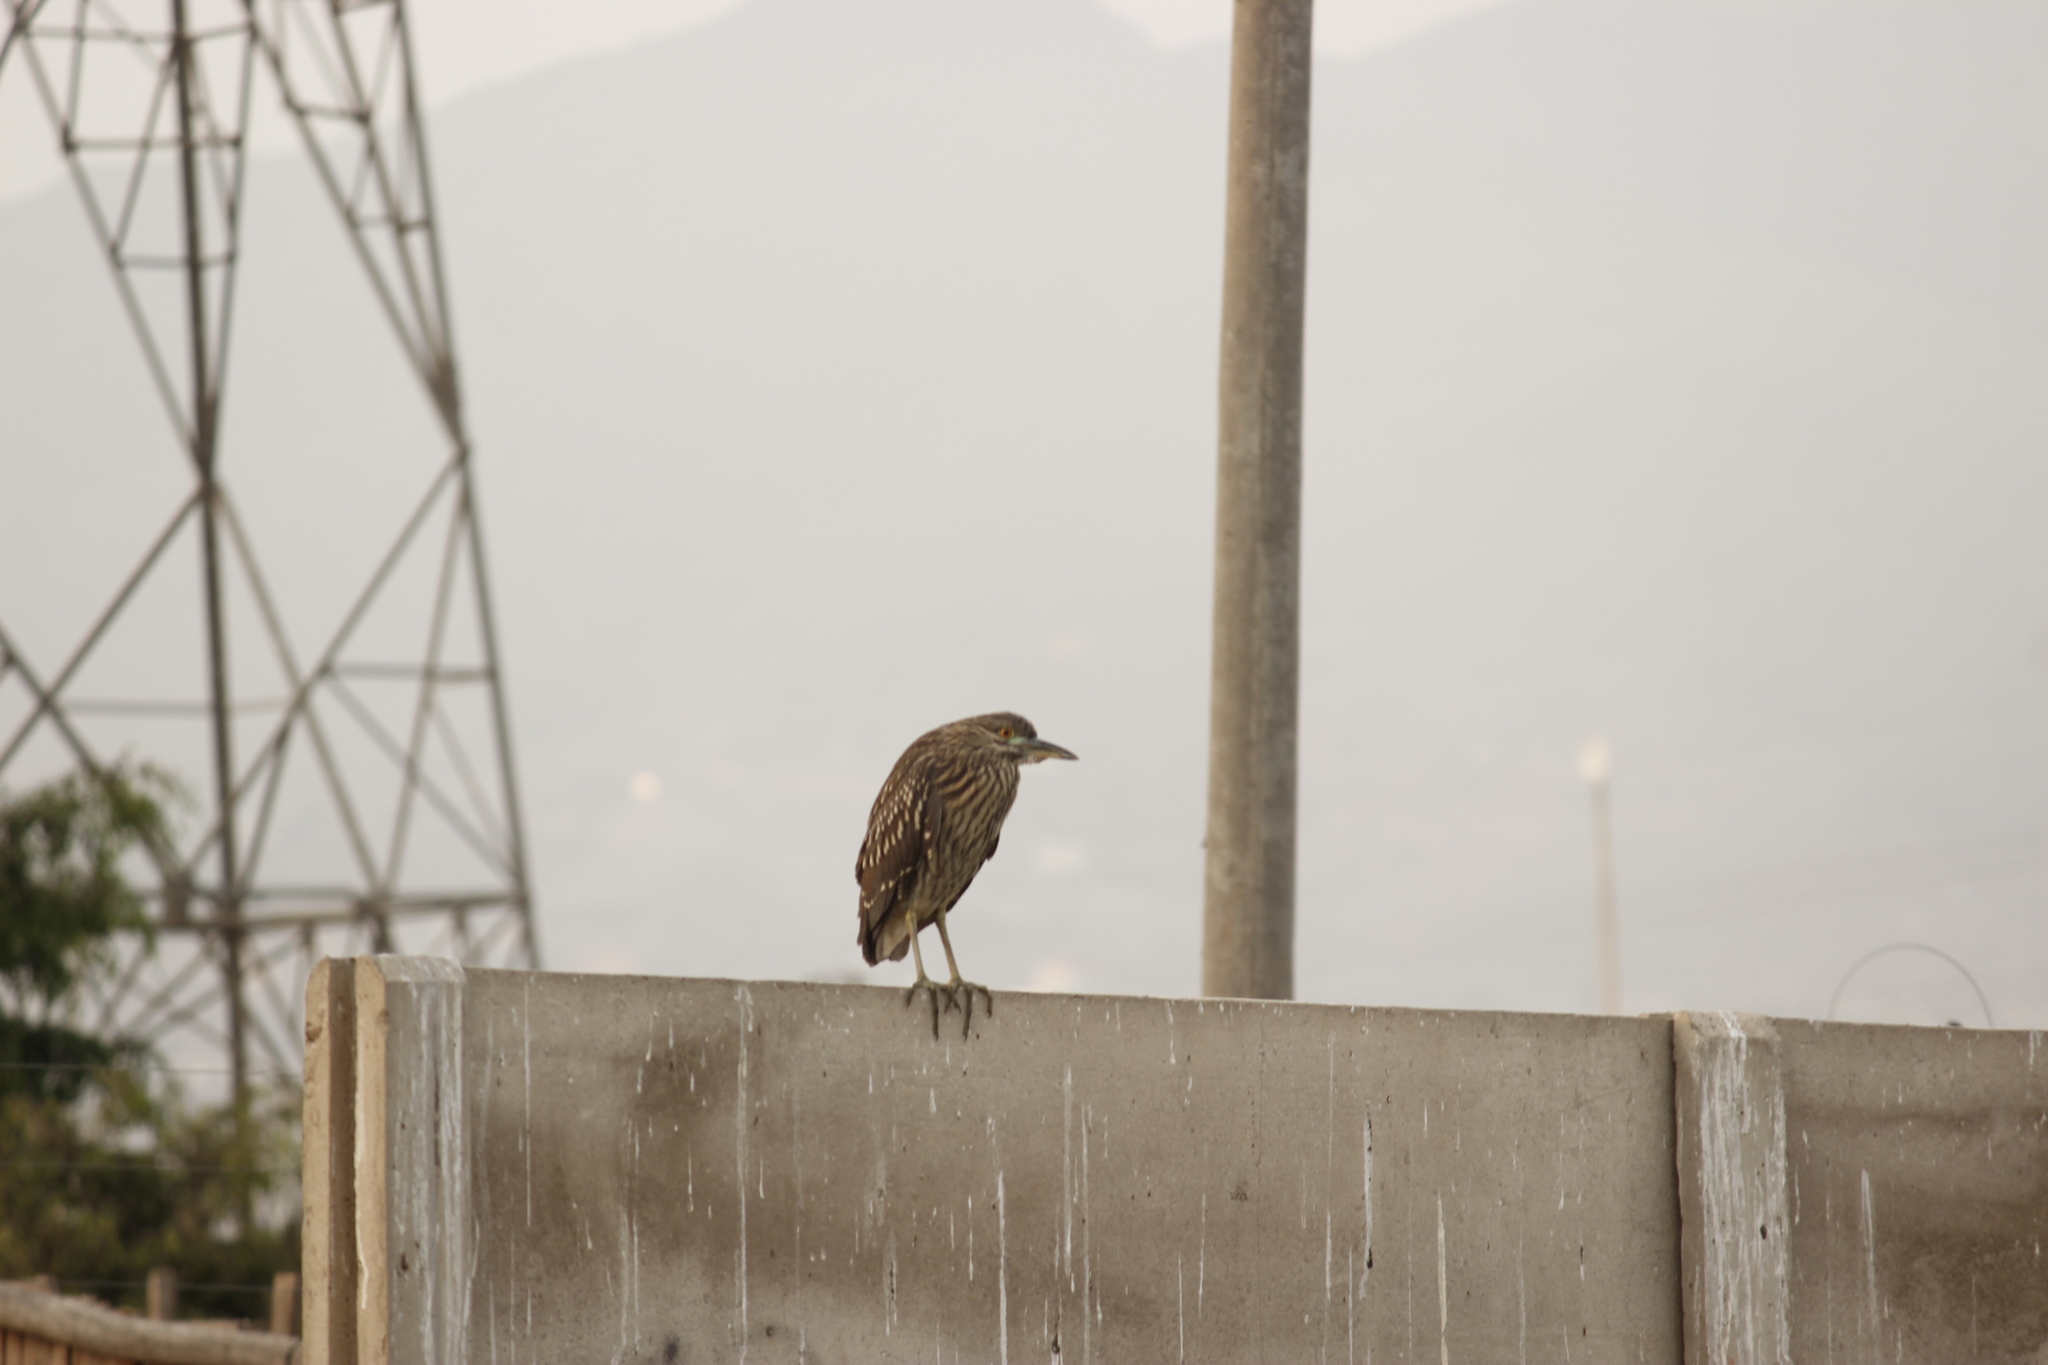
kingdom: Animalia
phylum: Chordata
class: Aves
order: Pelecaniformes
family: Ardeidae
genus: Nycticorax
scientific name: Nycticorax nycticorax
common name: Black-crowned night heron
